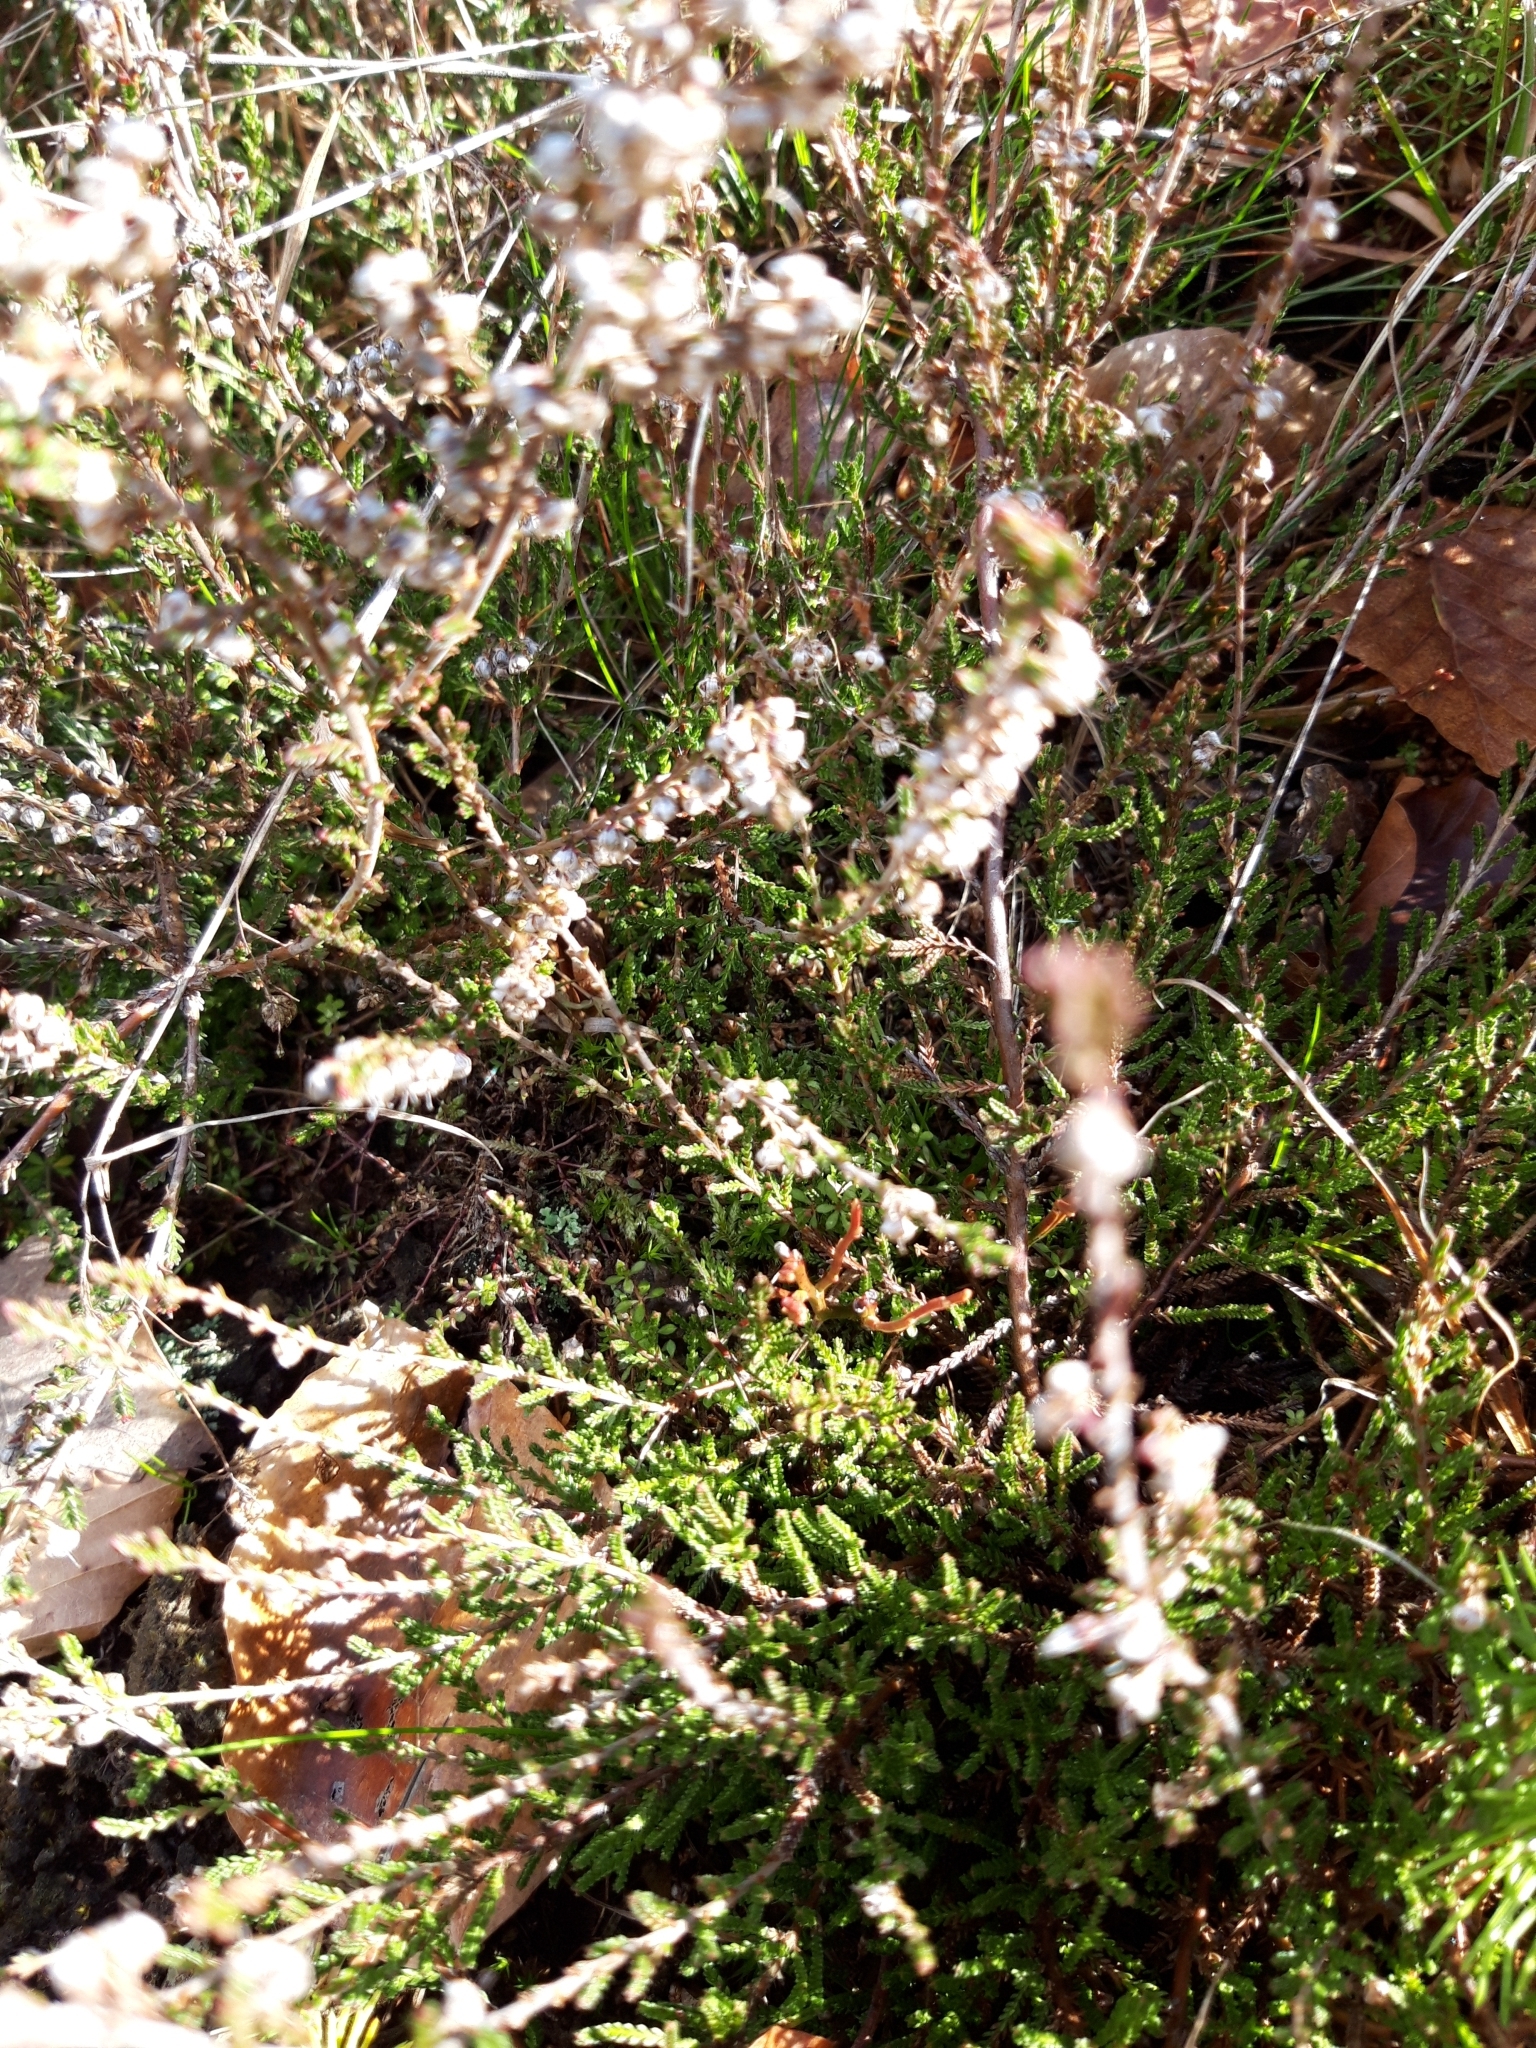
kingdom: Plantae
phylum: Tracheophyta
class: Magnoliopsida
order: Ericales
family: Ericaceae
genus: Calluna
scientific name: Calluna vulgaris
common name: Heather
